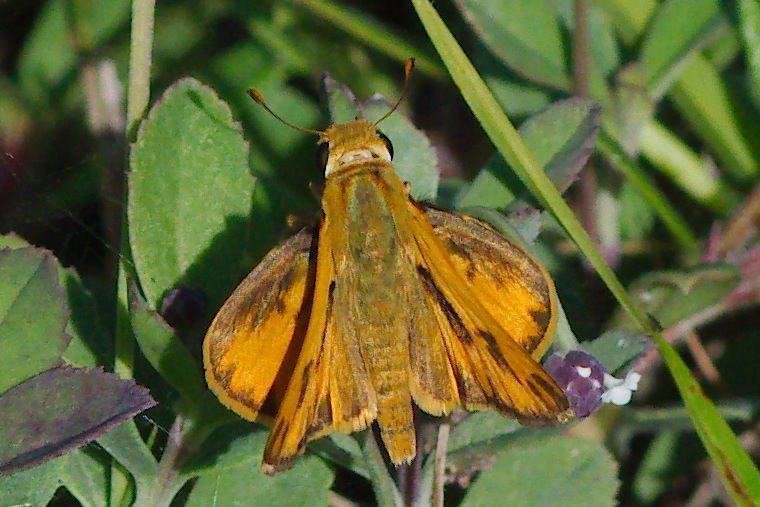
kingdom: Animalia
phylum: Arthropoda
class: Insecta
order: Lepidoptera
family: Hesperiidae
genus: Hylephila
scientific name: Hylephila phyleus
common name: Fiery skipper
